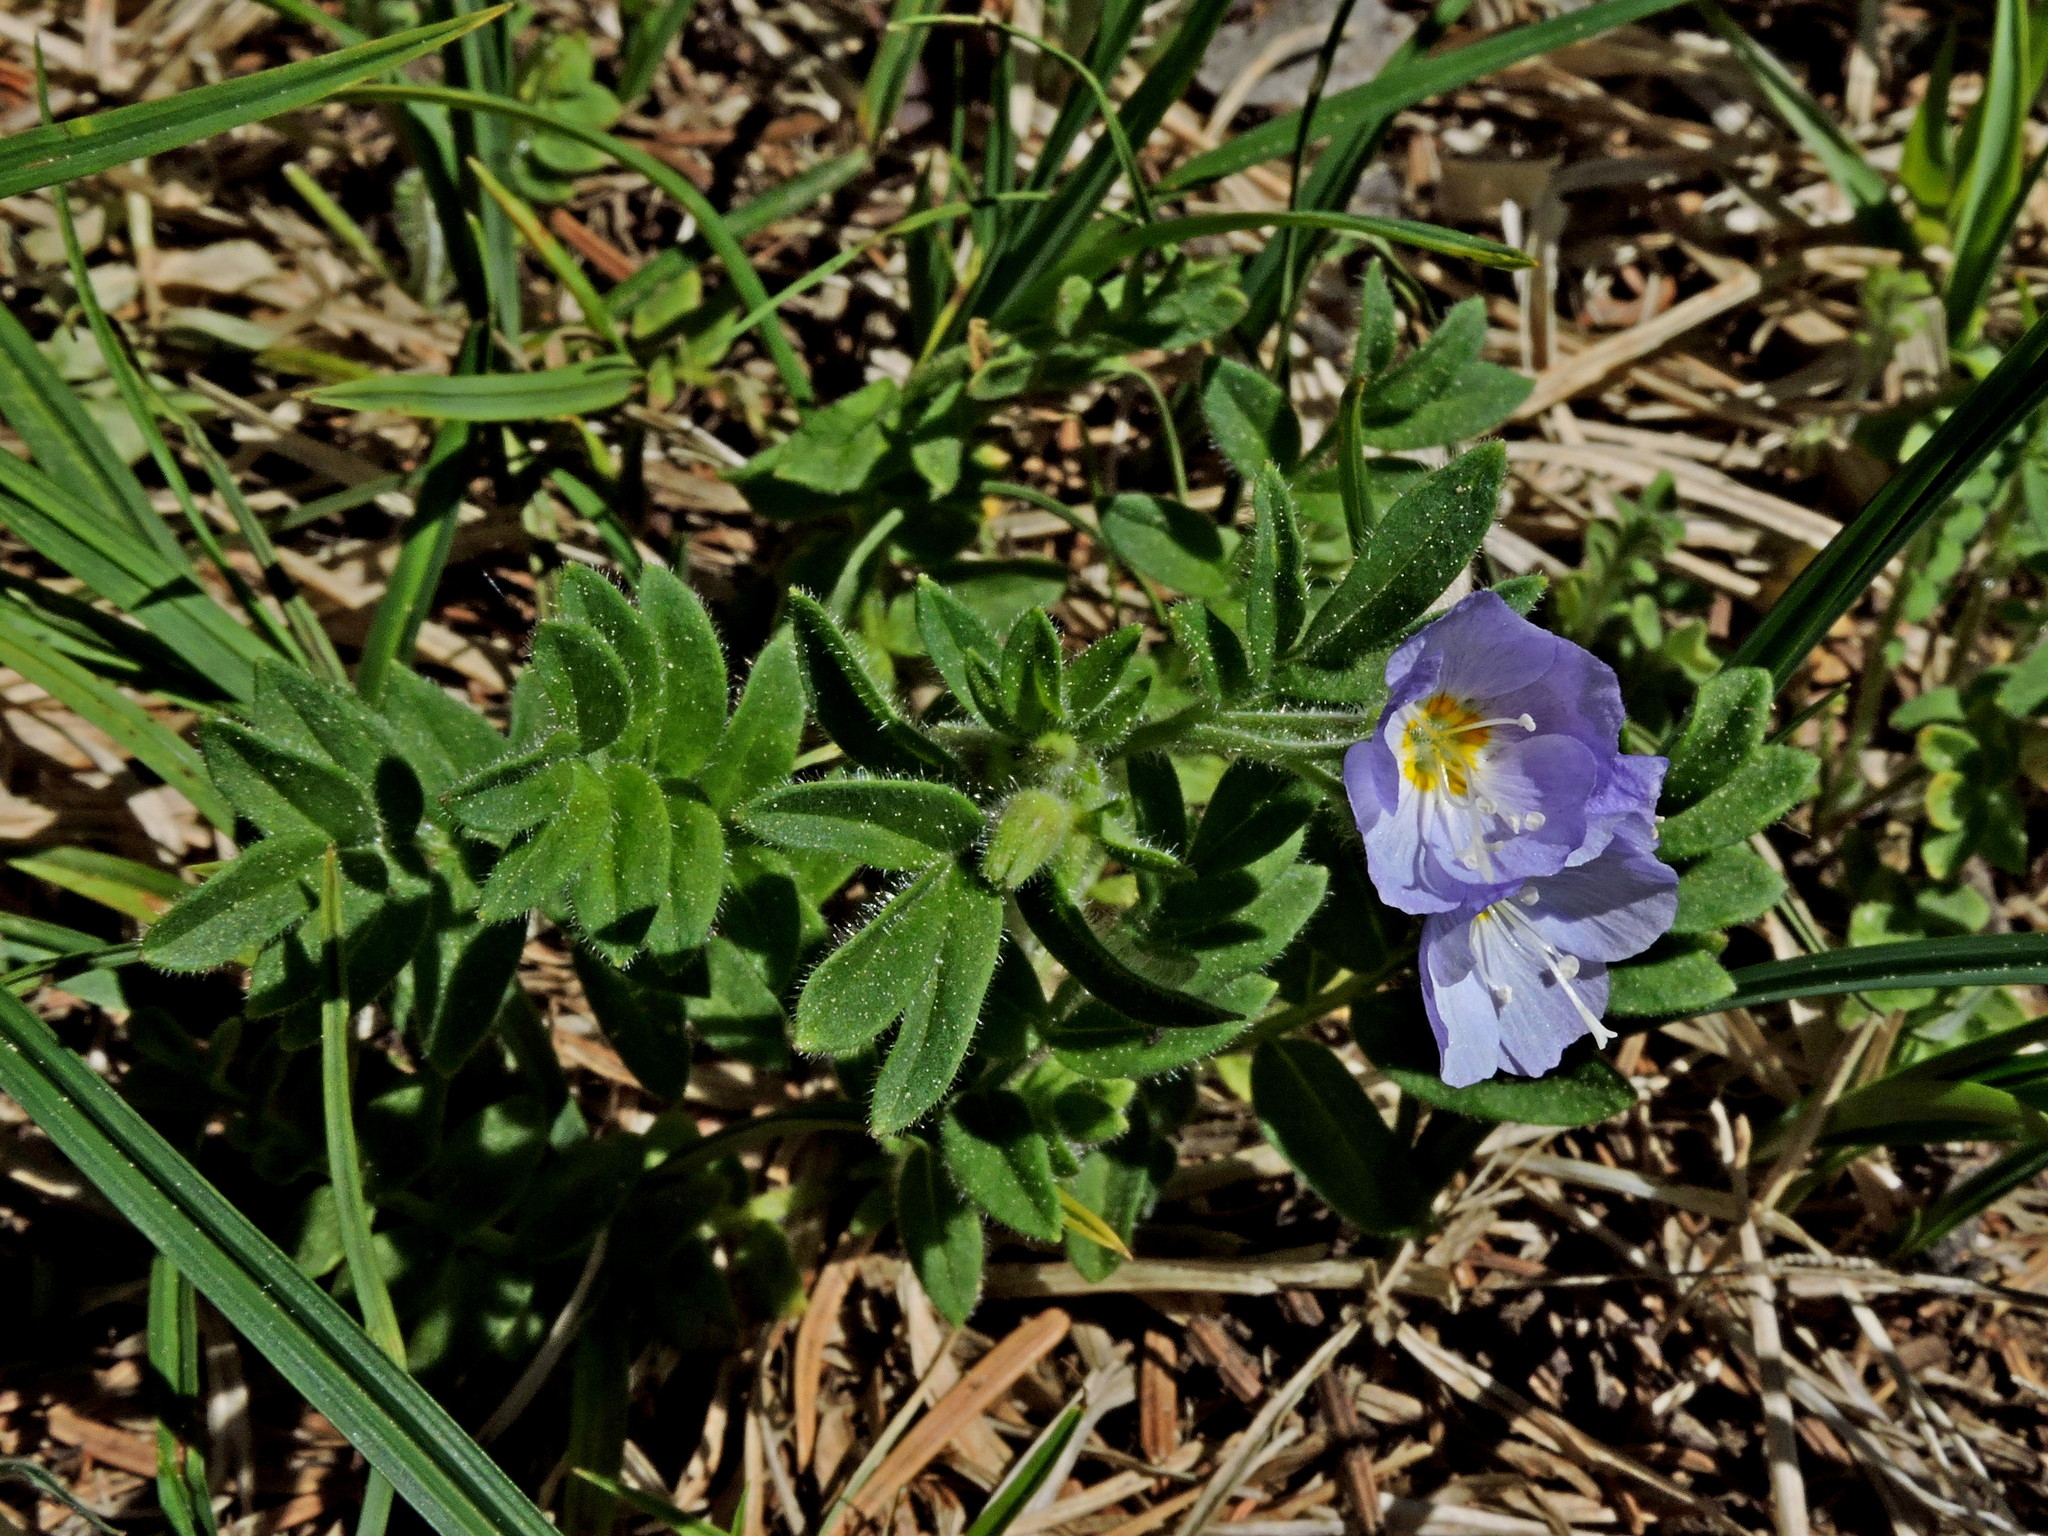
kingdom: Plantae
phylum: Tracheophyta
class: Magnoliopsida
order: Ericales
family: Polemoniaceae
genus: Polemonium
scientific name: Polemonium californicum
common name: California jacob's ladder
